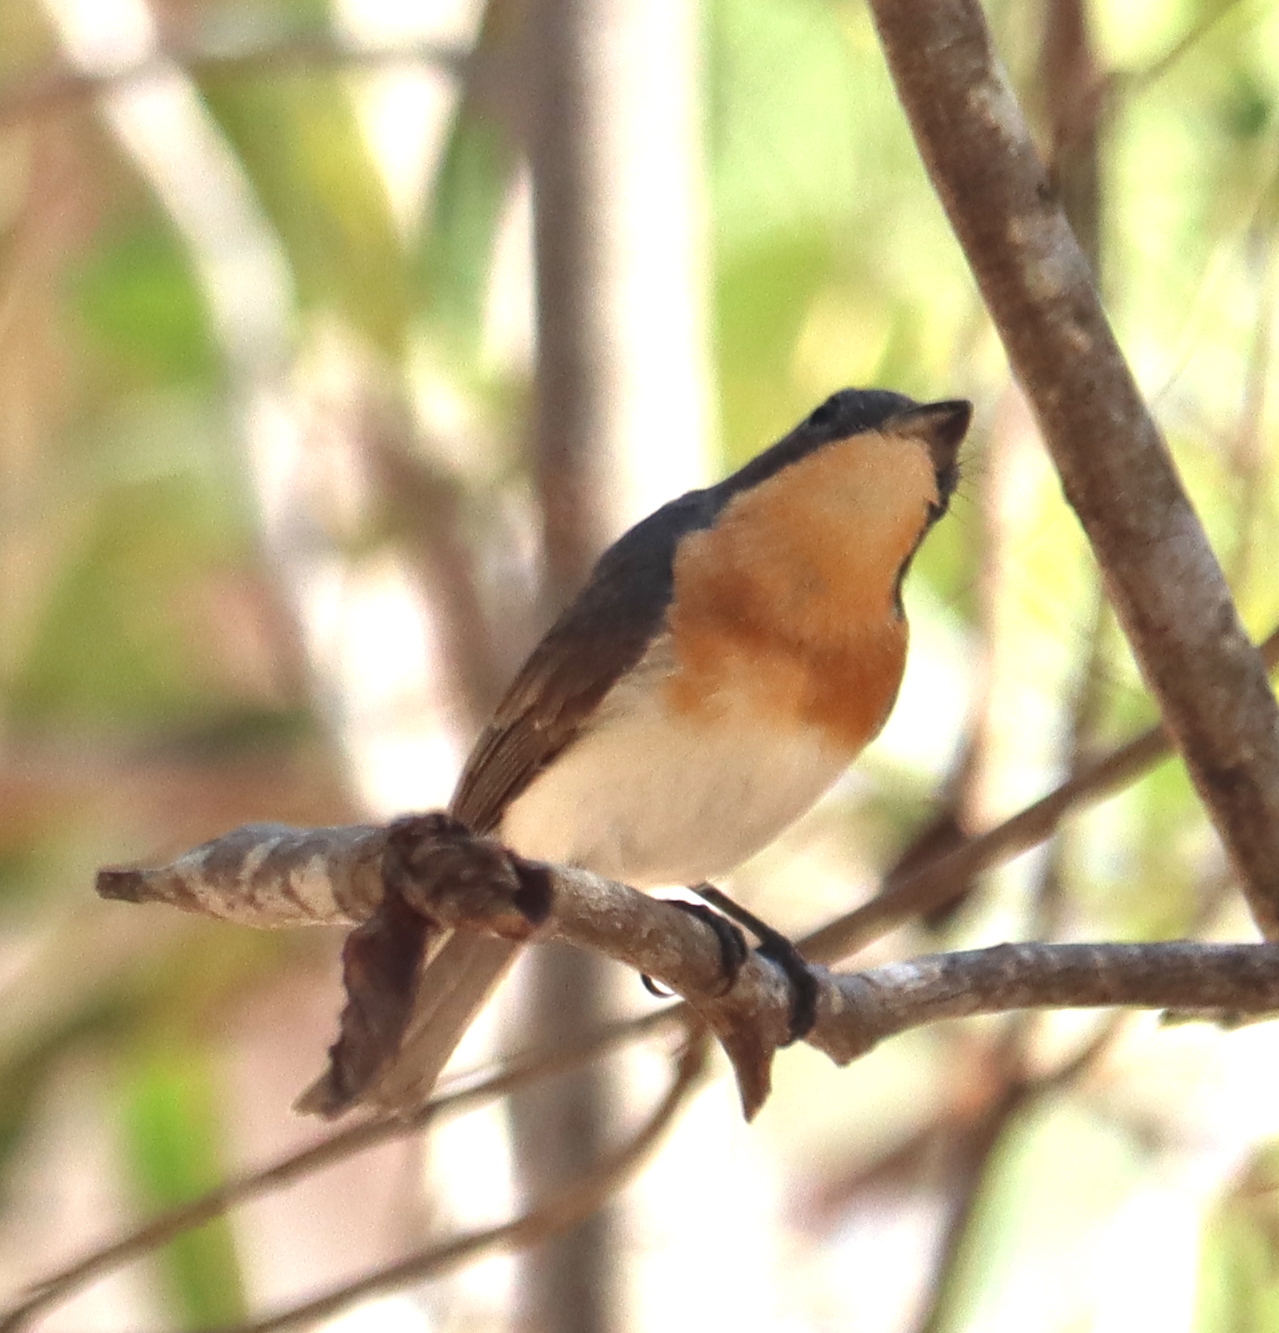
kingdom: Animalia
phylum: Chordata
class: Aves
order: Passeriformes
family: Monarchidae
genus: Myiagra
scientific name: Myiagra rubecula
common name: Leaden flycatcher
